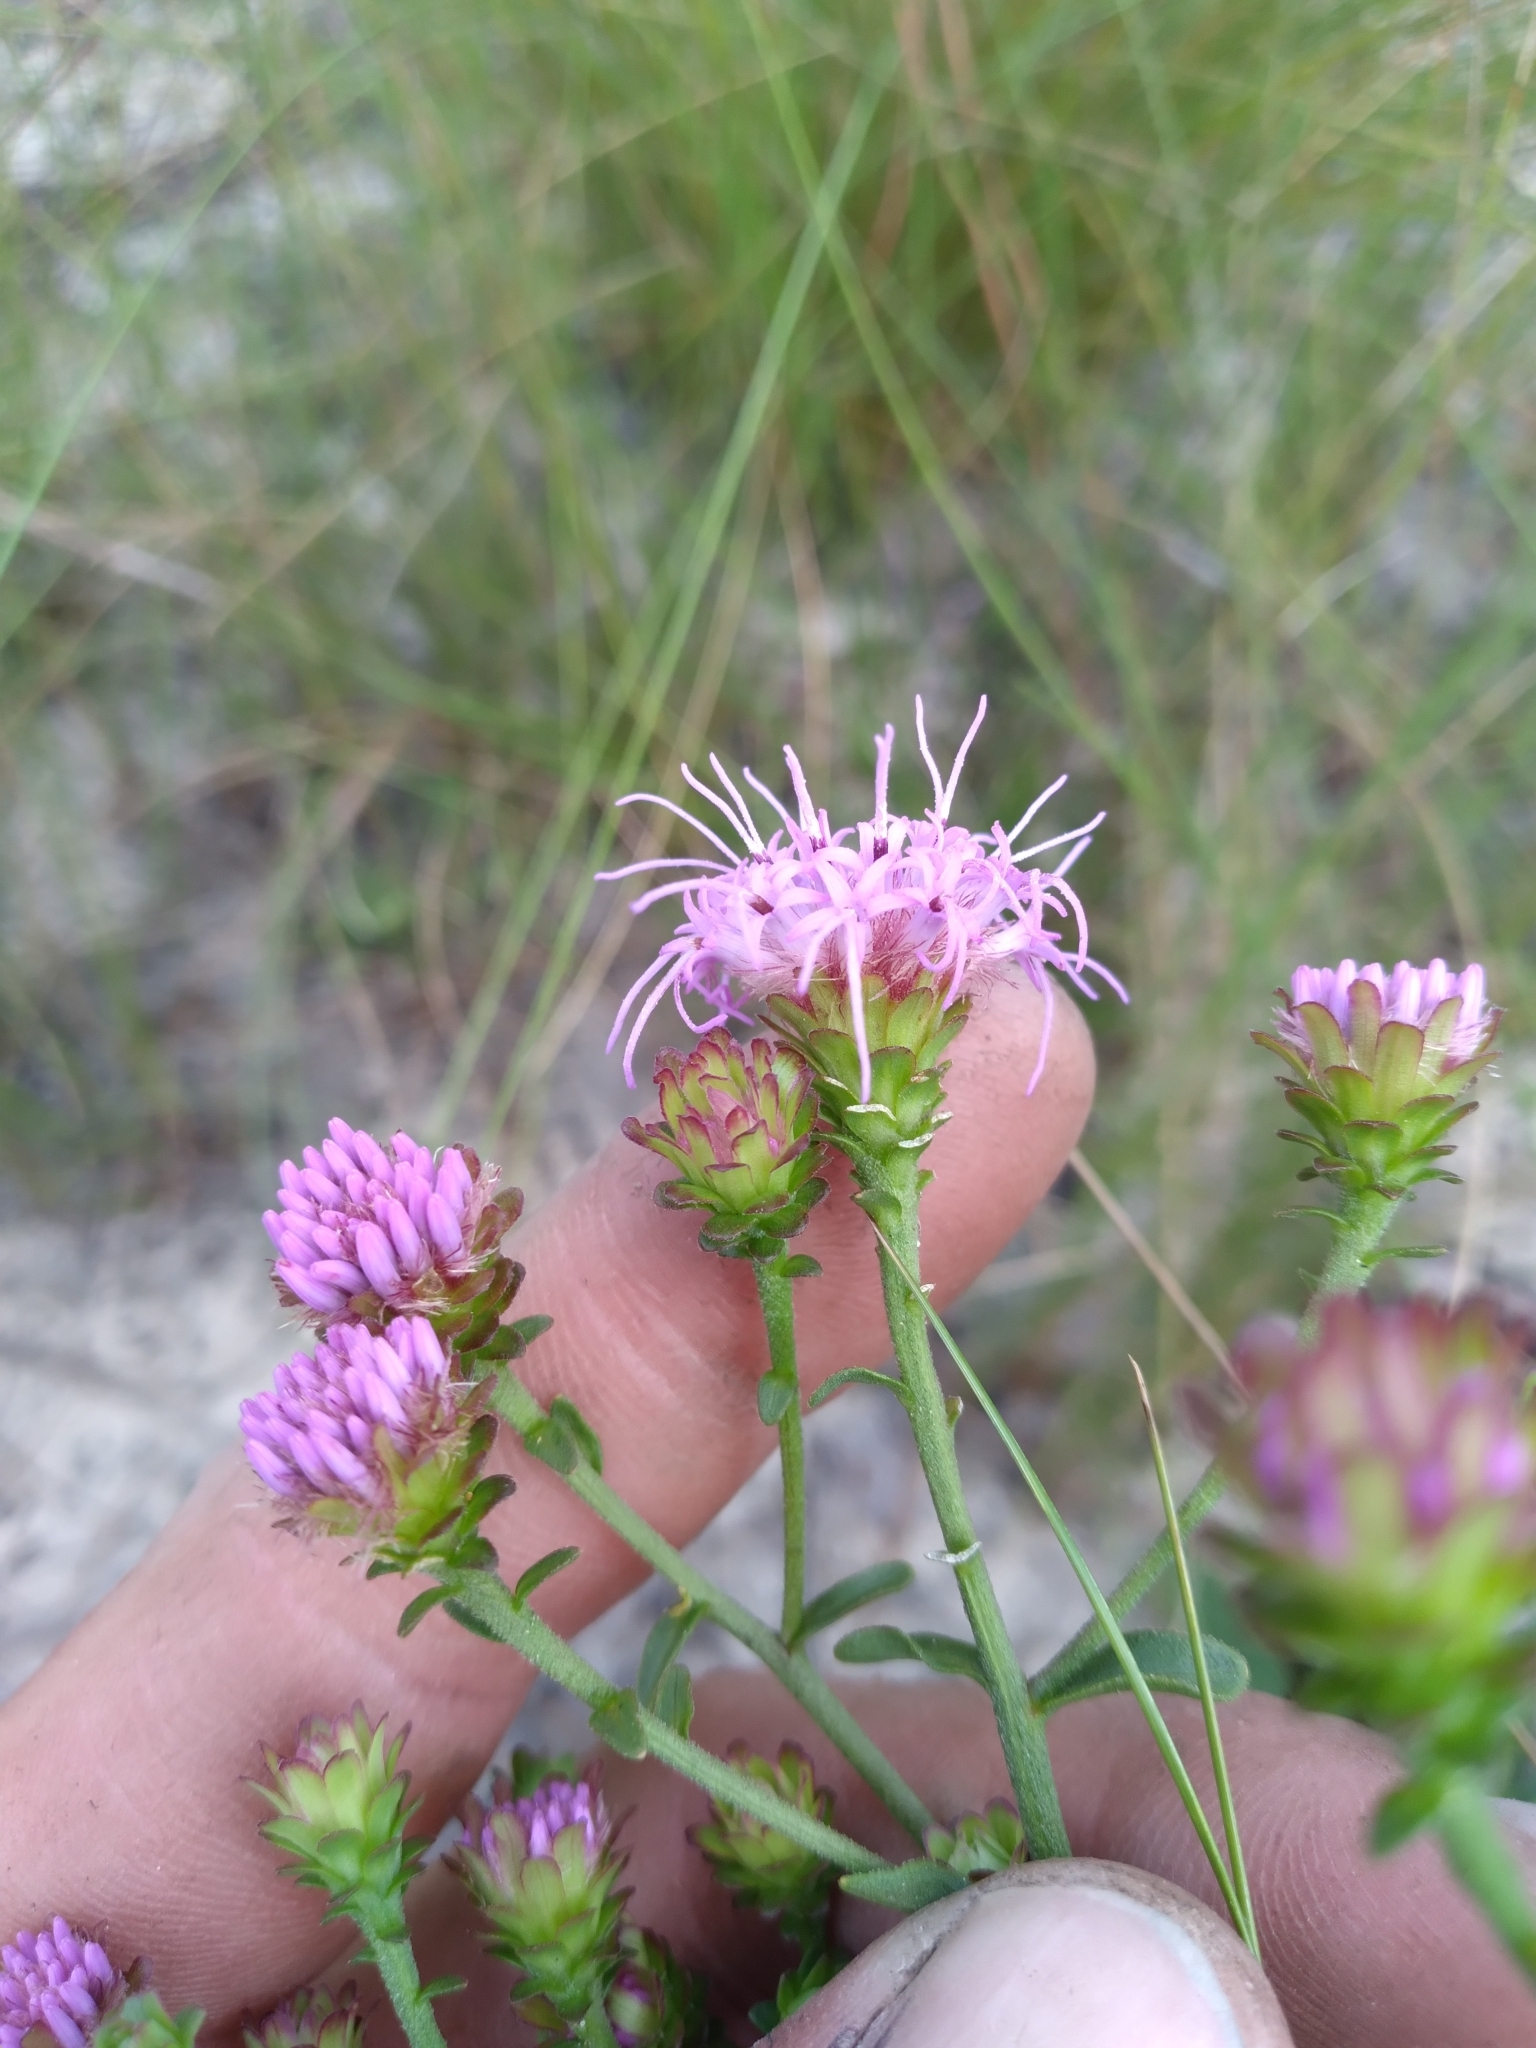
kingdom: Plantae
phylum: Tracheophyta
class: Magnoliopsida
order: Asterales
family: Asteraceae
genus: Carphephorus
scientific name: Carphephorus bellidifolius
